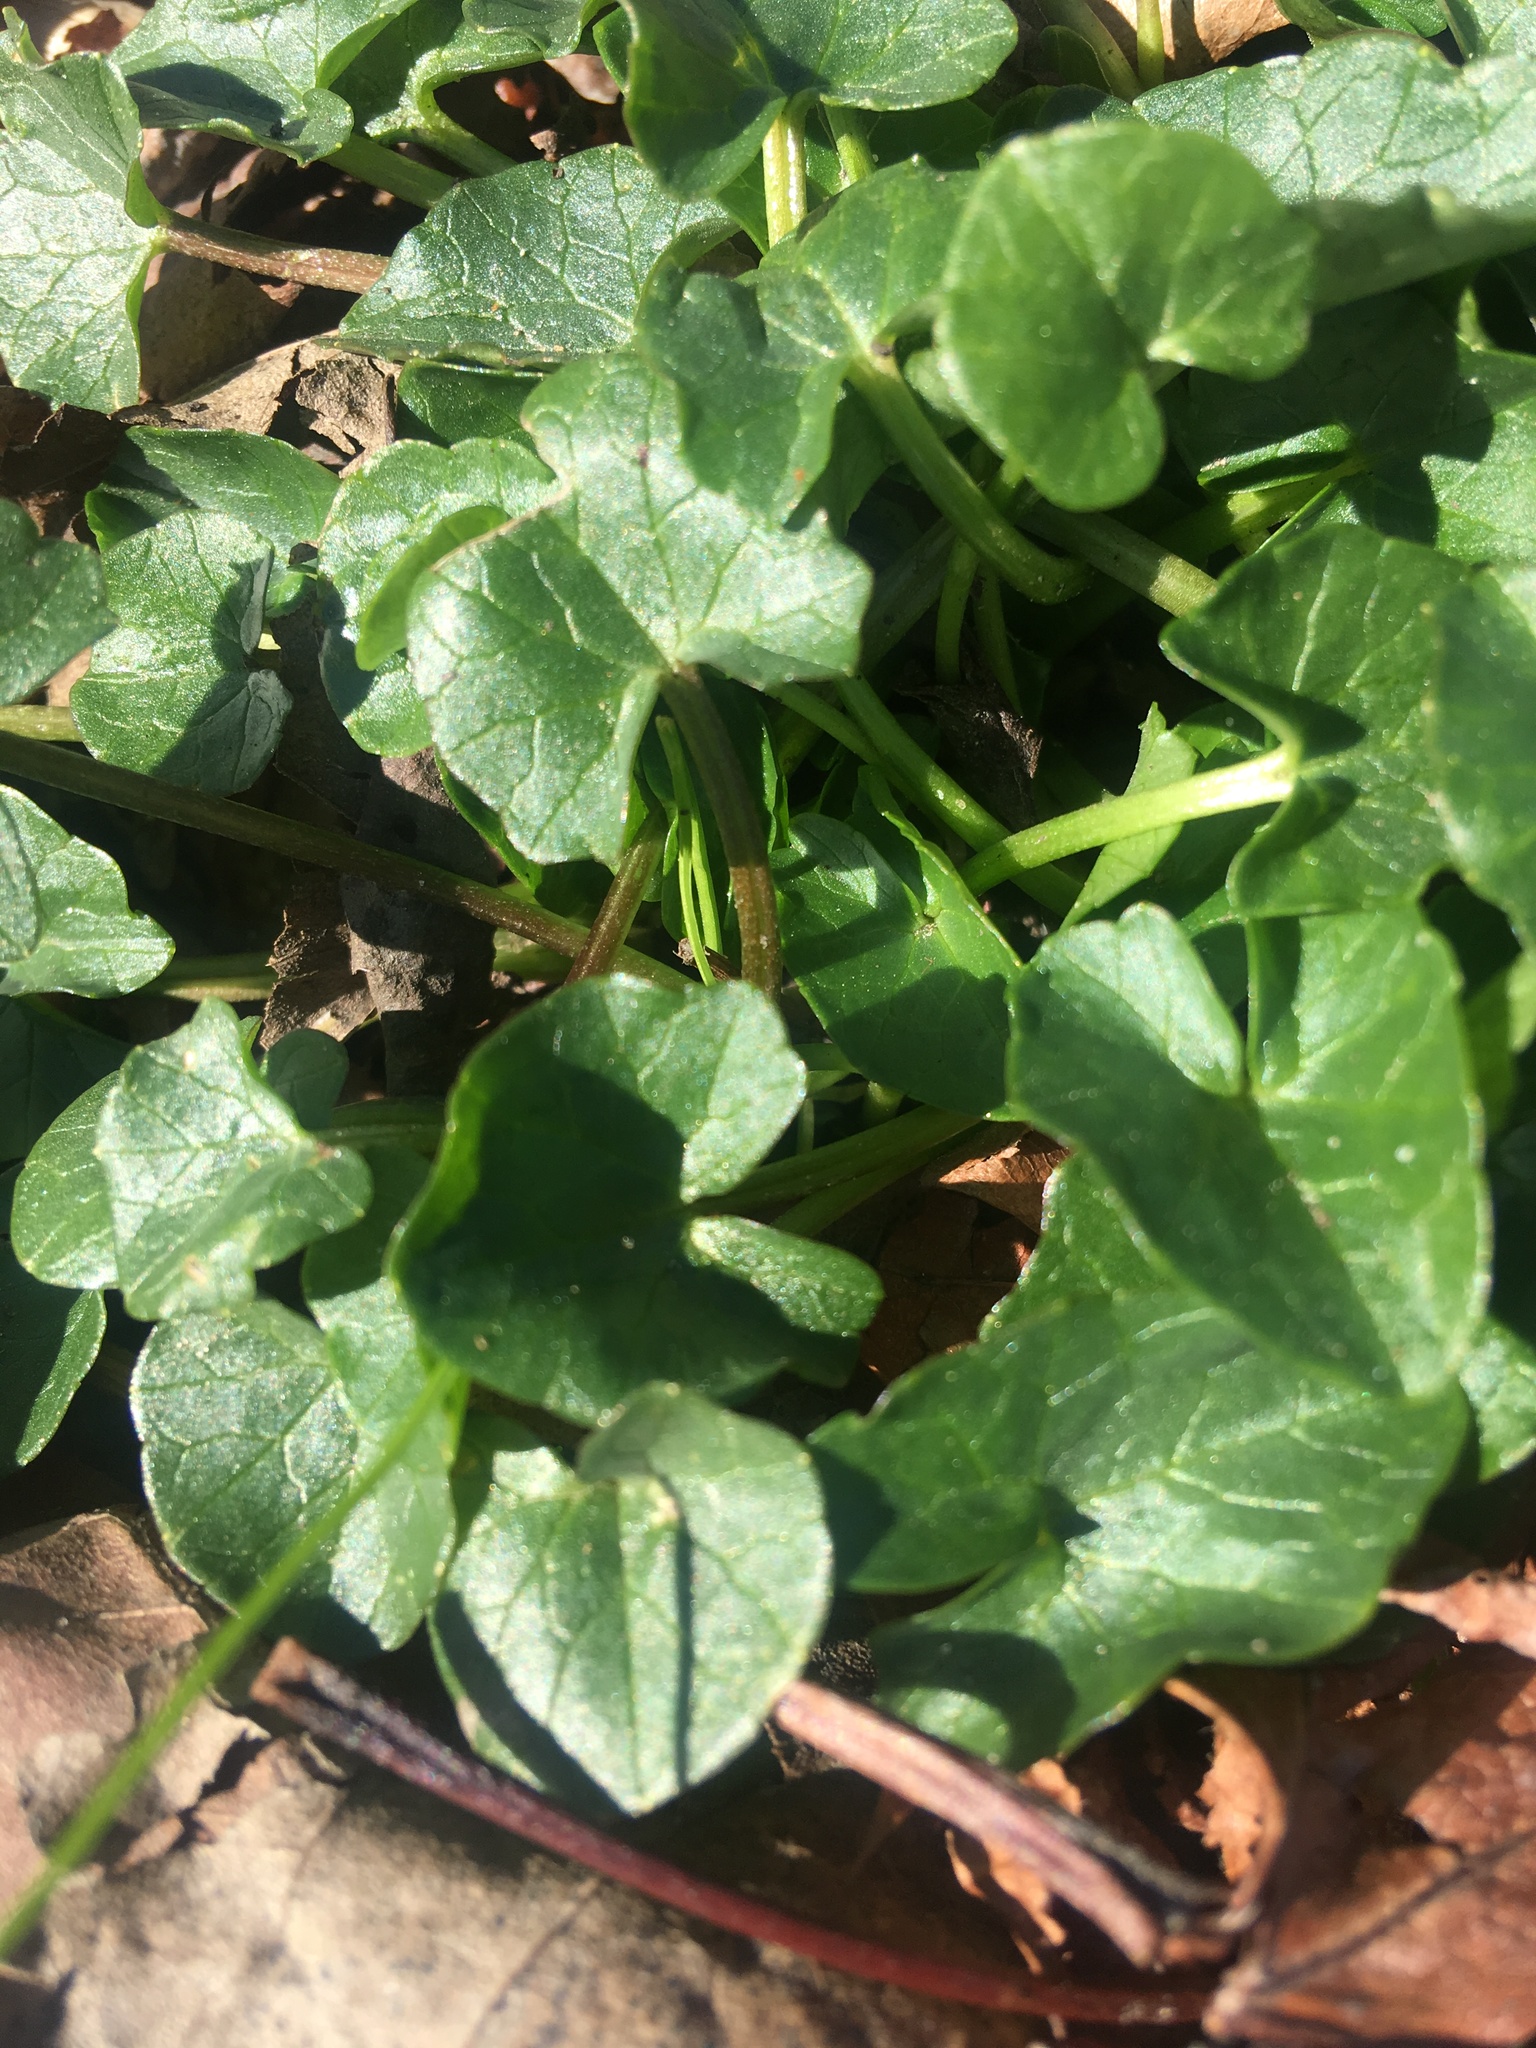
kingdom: Plantae
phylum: Tracheophyta
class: Magnoliopsida
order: Ranunculales
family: Ranunculaceae
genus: Ficaria
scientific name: Ficaria verna
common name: Lesser celandine
